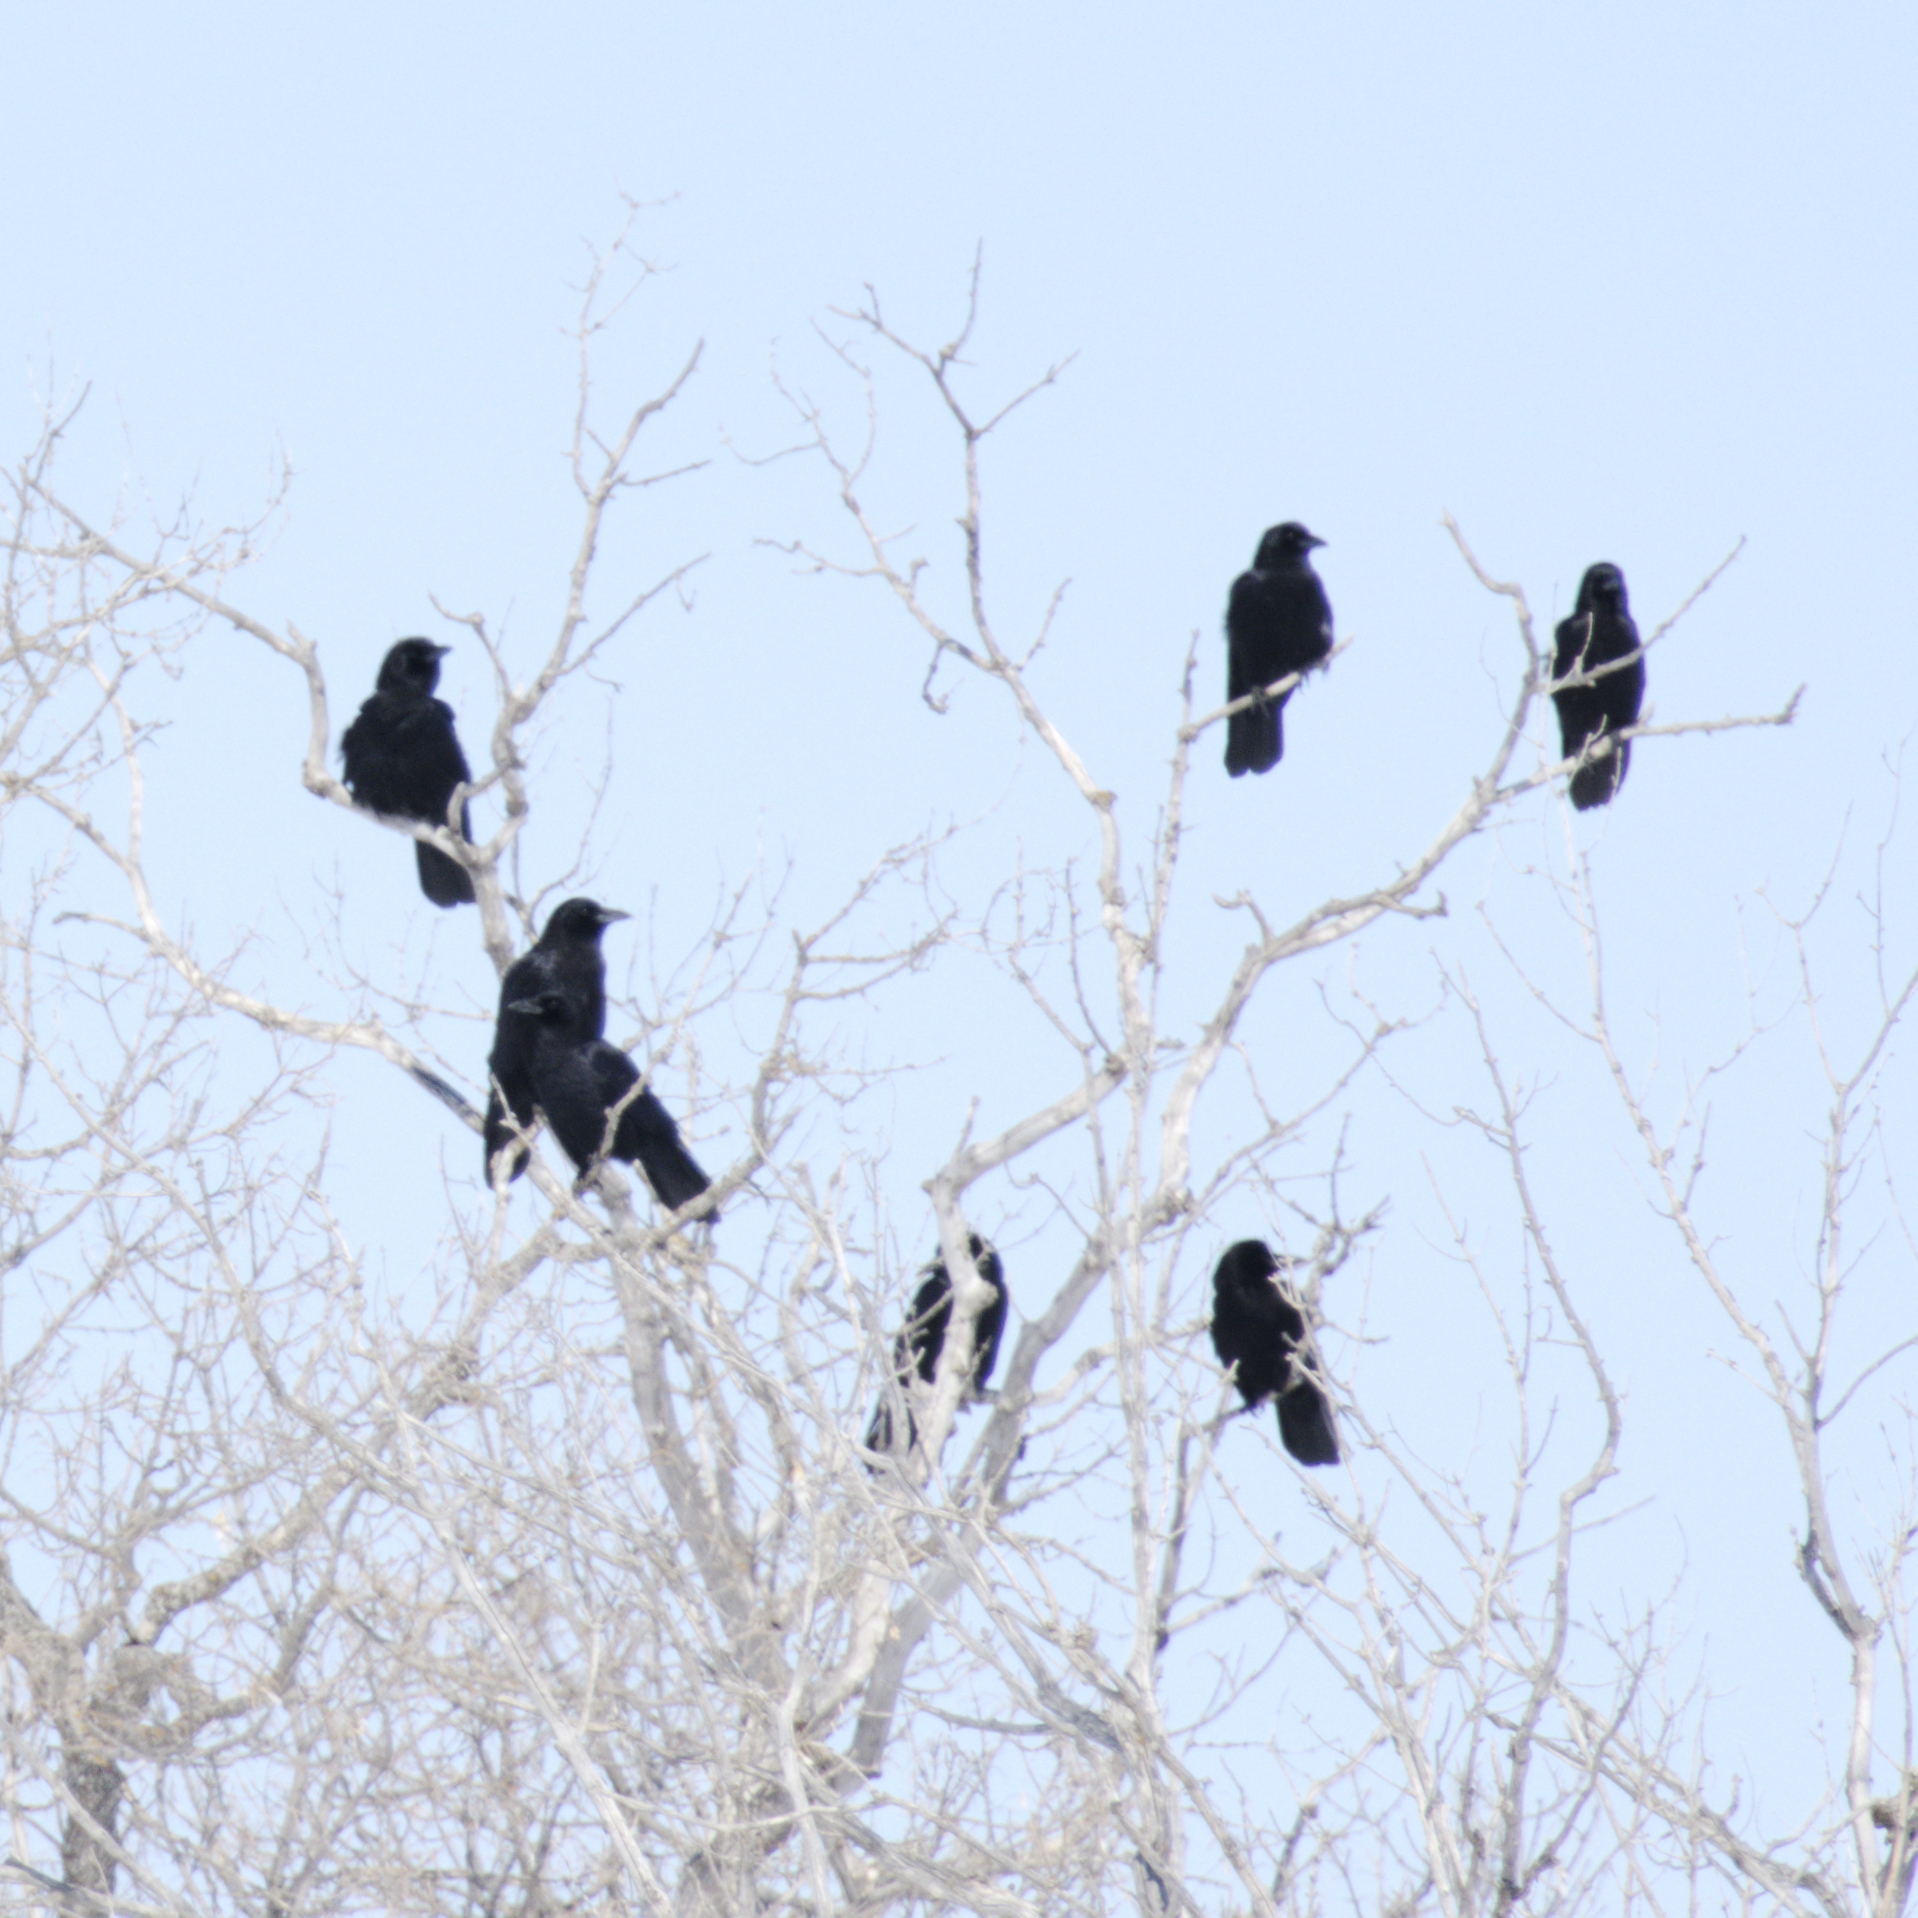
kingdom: Animalia
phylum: Chordata
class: Aves
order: Passeriformes
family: Corvidae
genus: Corvus
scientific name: Corvus brachyrhynchos
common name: American crow
